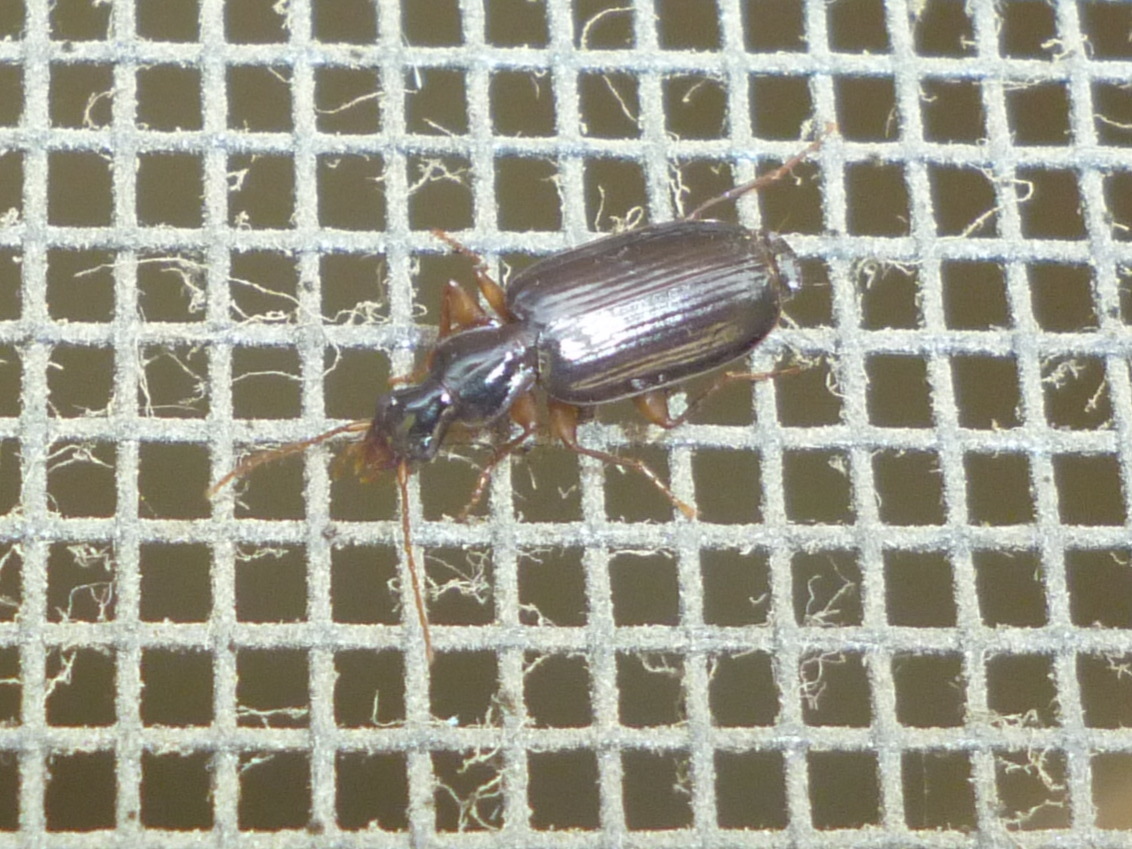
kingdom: Animalia
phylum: Arthropoda
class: Insecta
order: Coleoptera
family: Carabidae
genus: Dromius
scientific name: Dromius piceus
